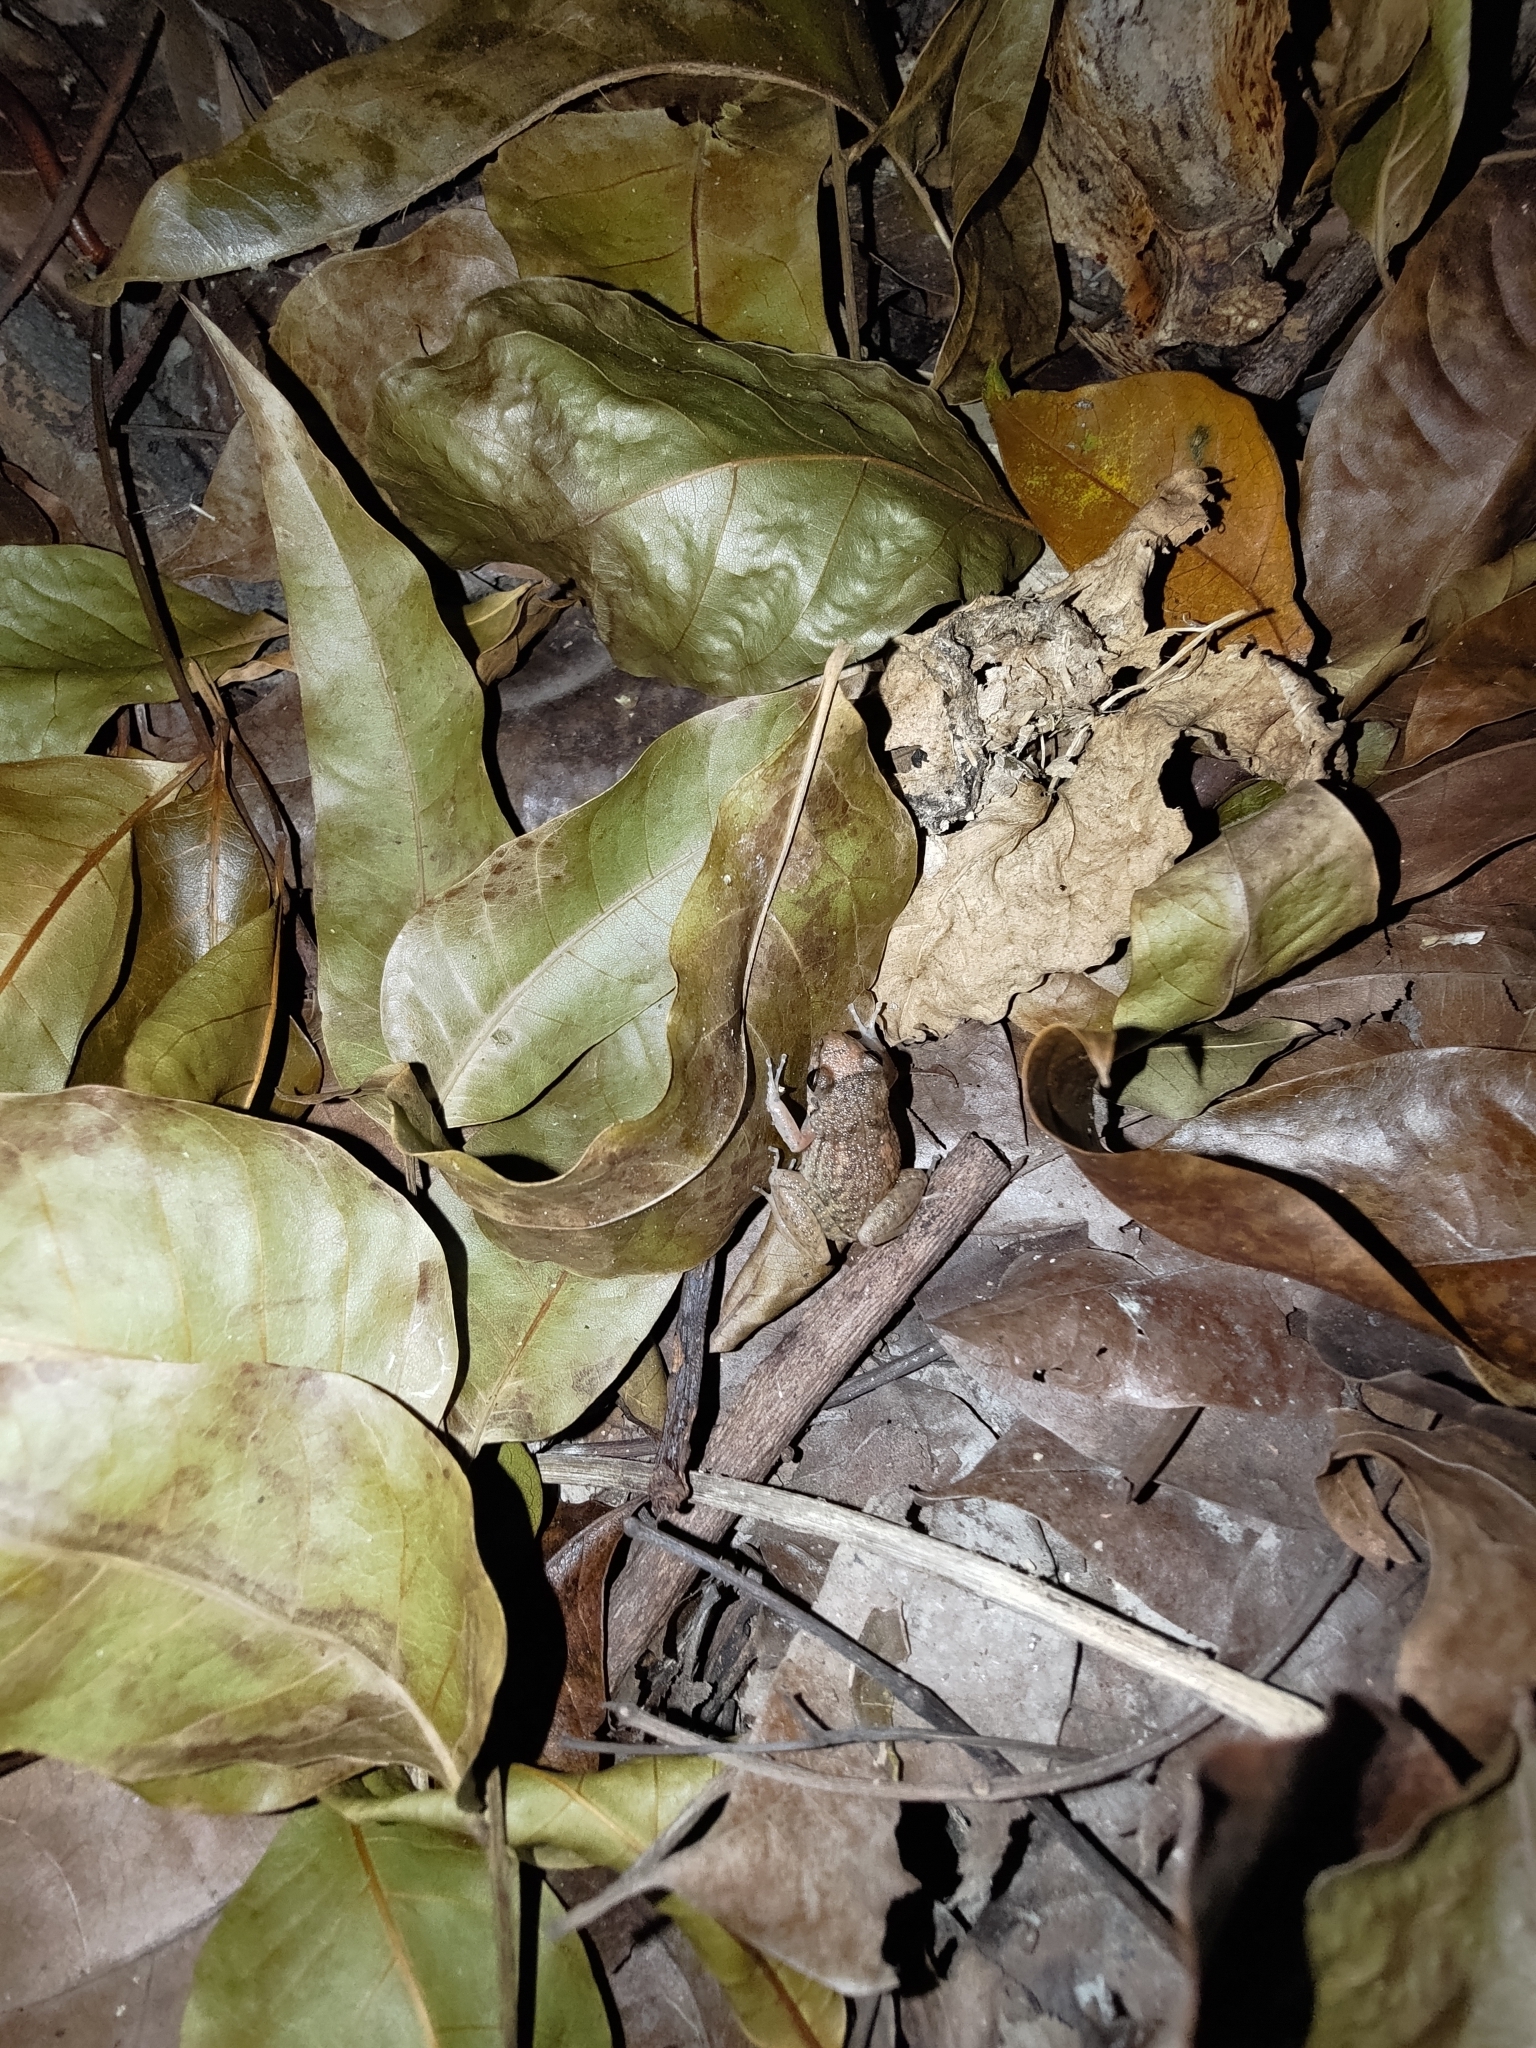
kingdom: Animalia
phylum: Chordata
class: Amphibia
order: Anura
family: Eleutherodactylidae
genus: Eleutherodactylus
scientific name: Eleutherodactylus planirostris
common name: Greenhouse frog
